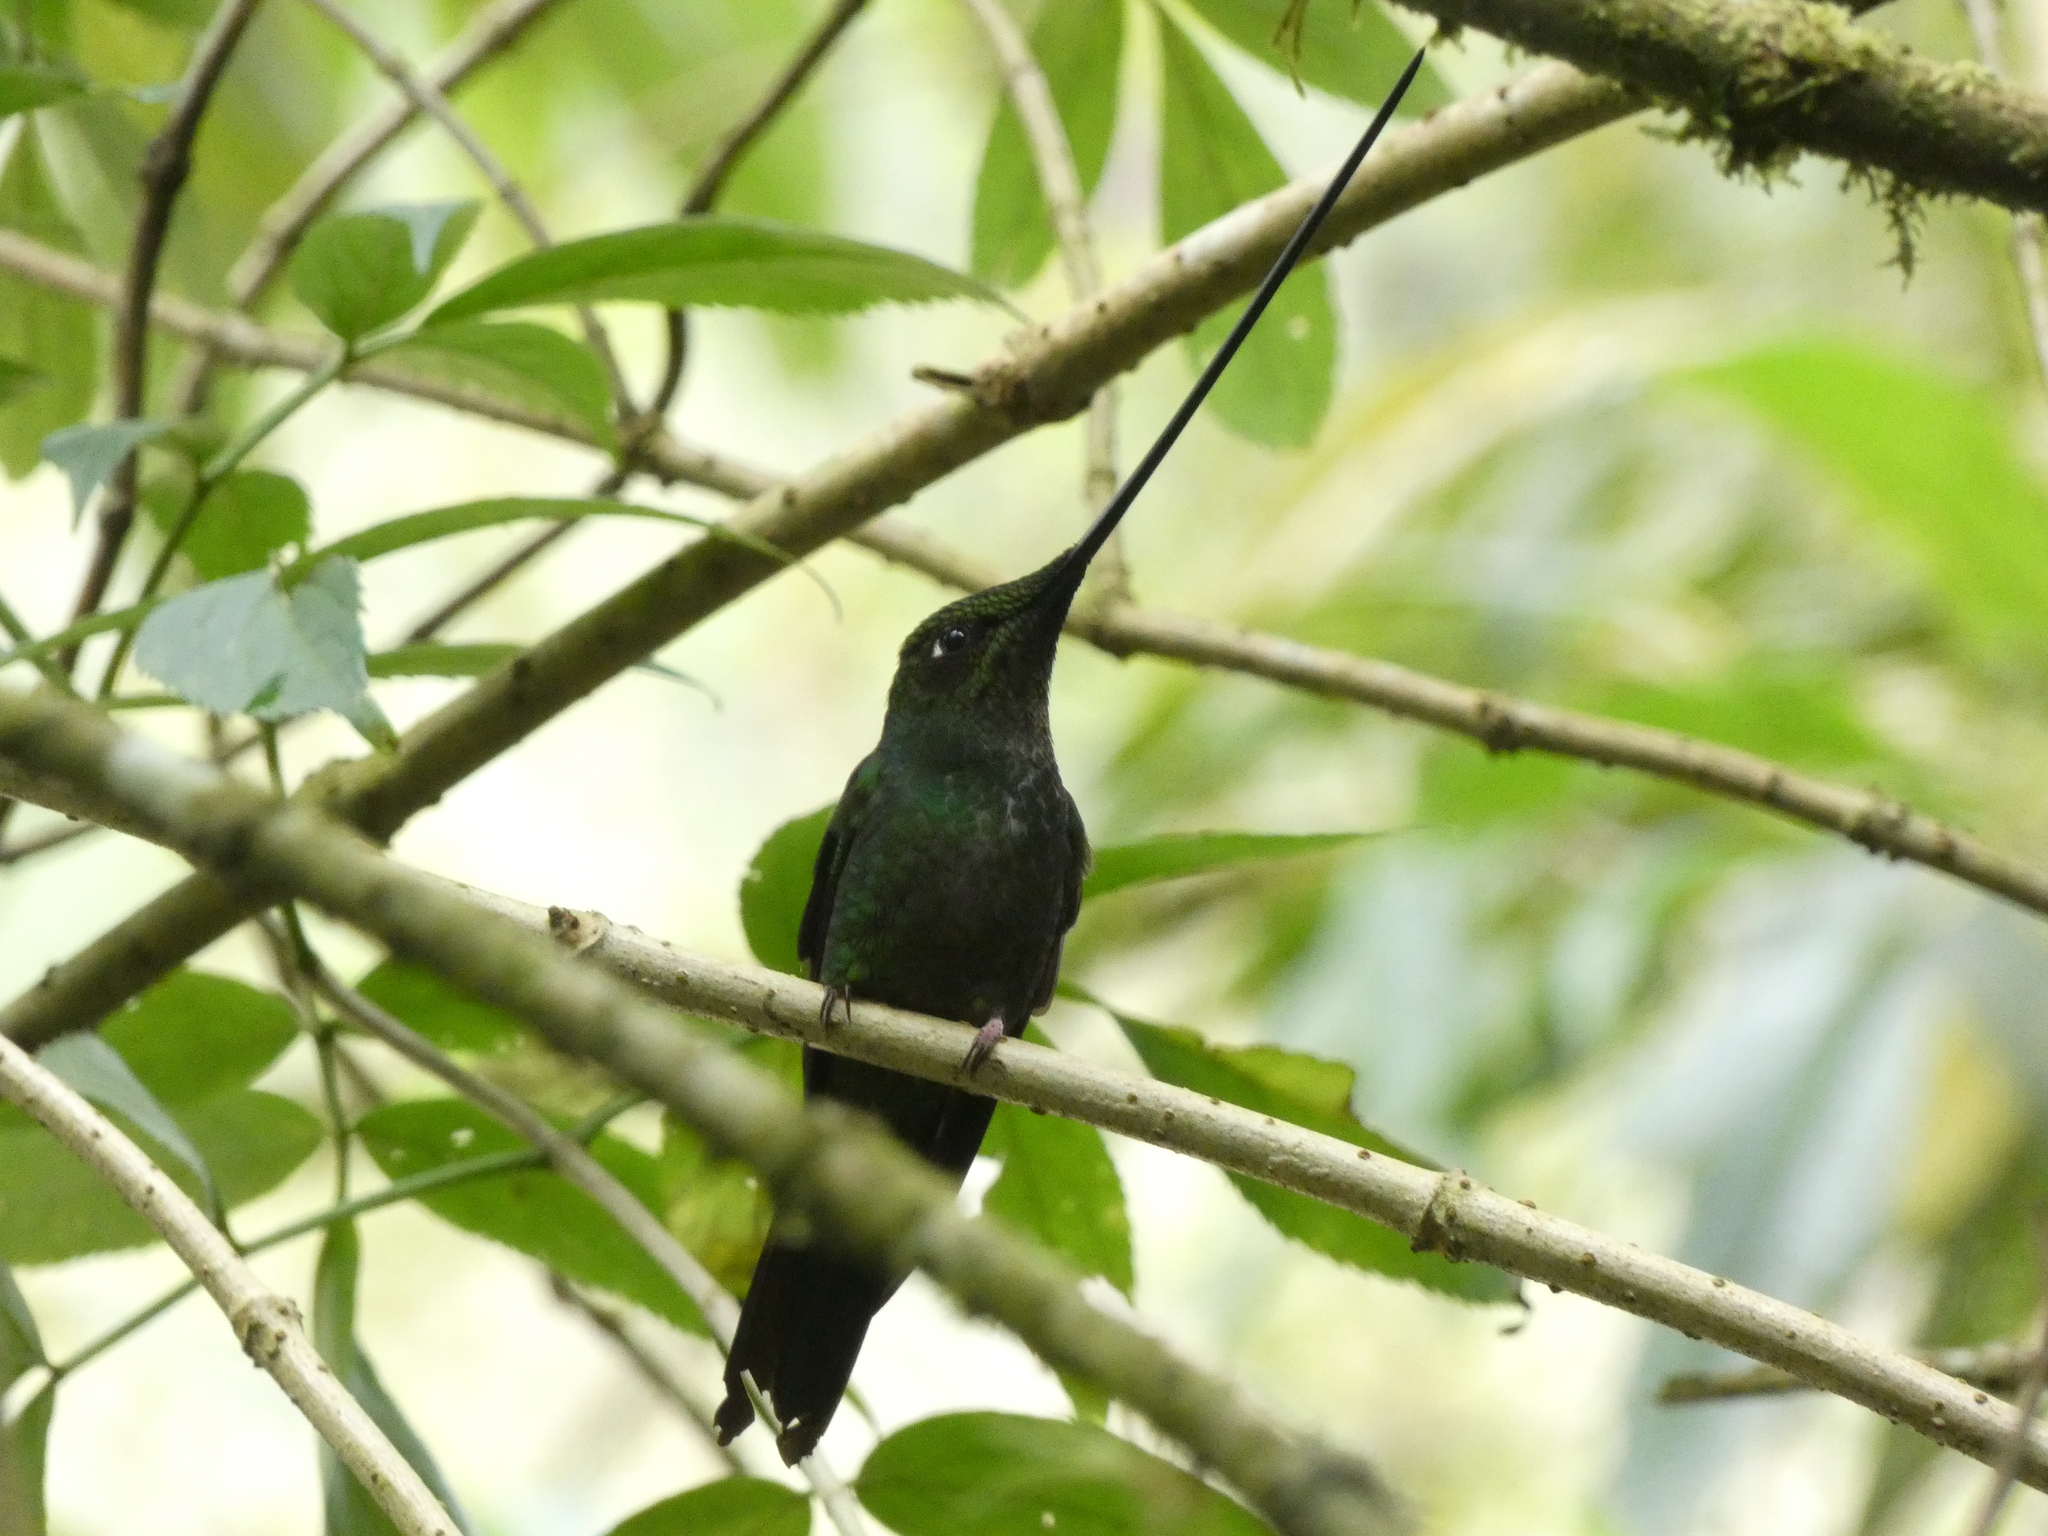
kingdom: Animalia
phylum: Chordata
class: Aves
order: Apodiformes
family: Trochilidae
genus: Ensifera
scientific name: Ensifera ensifera
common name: Sword-billed hummingbird
